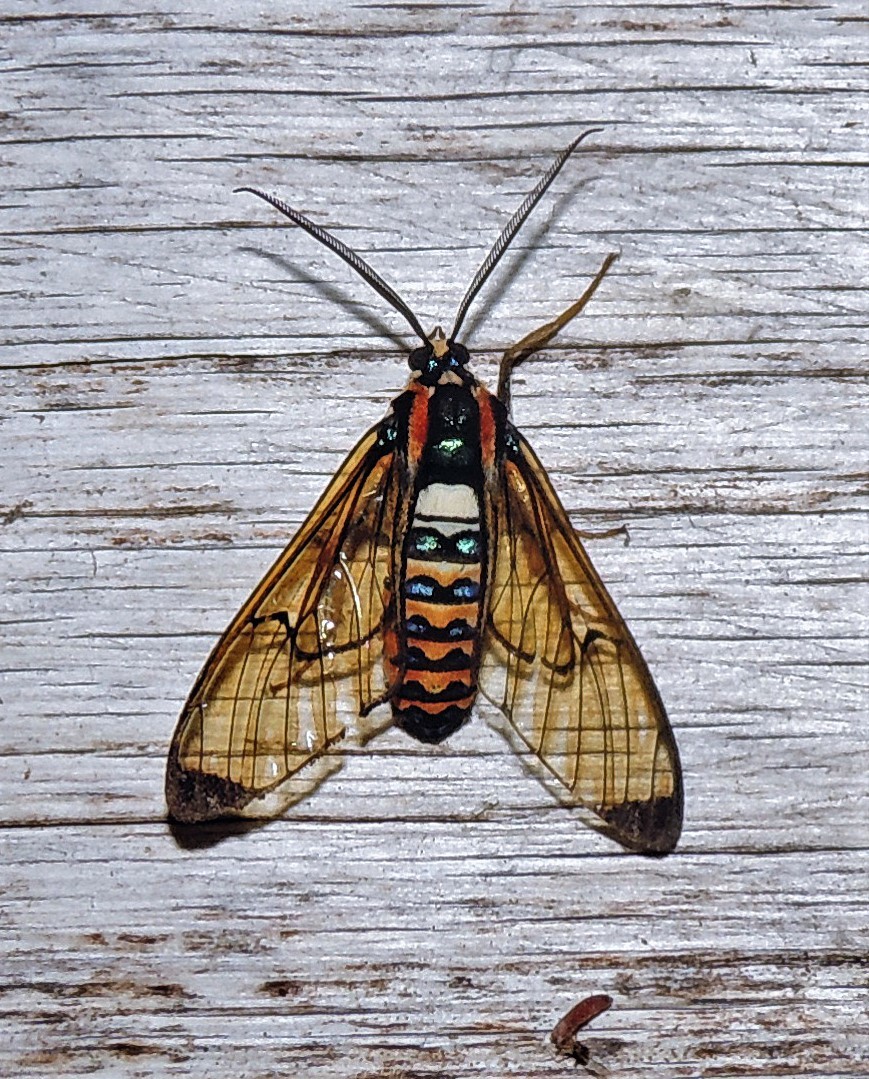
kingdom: Animalia
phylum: Arthropoda
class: Insecta
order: Lepidoptera
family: Erebidae
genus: Gymnelia
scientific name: Gymnelia pavo
